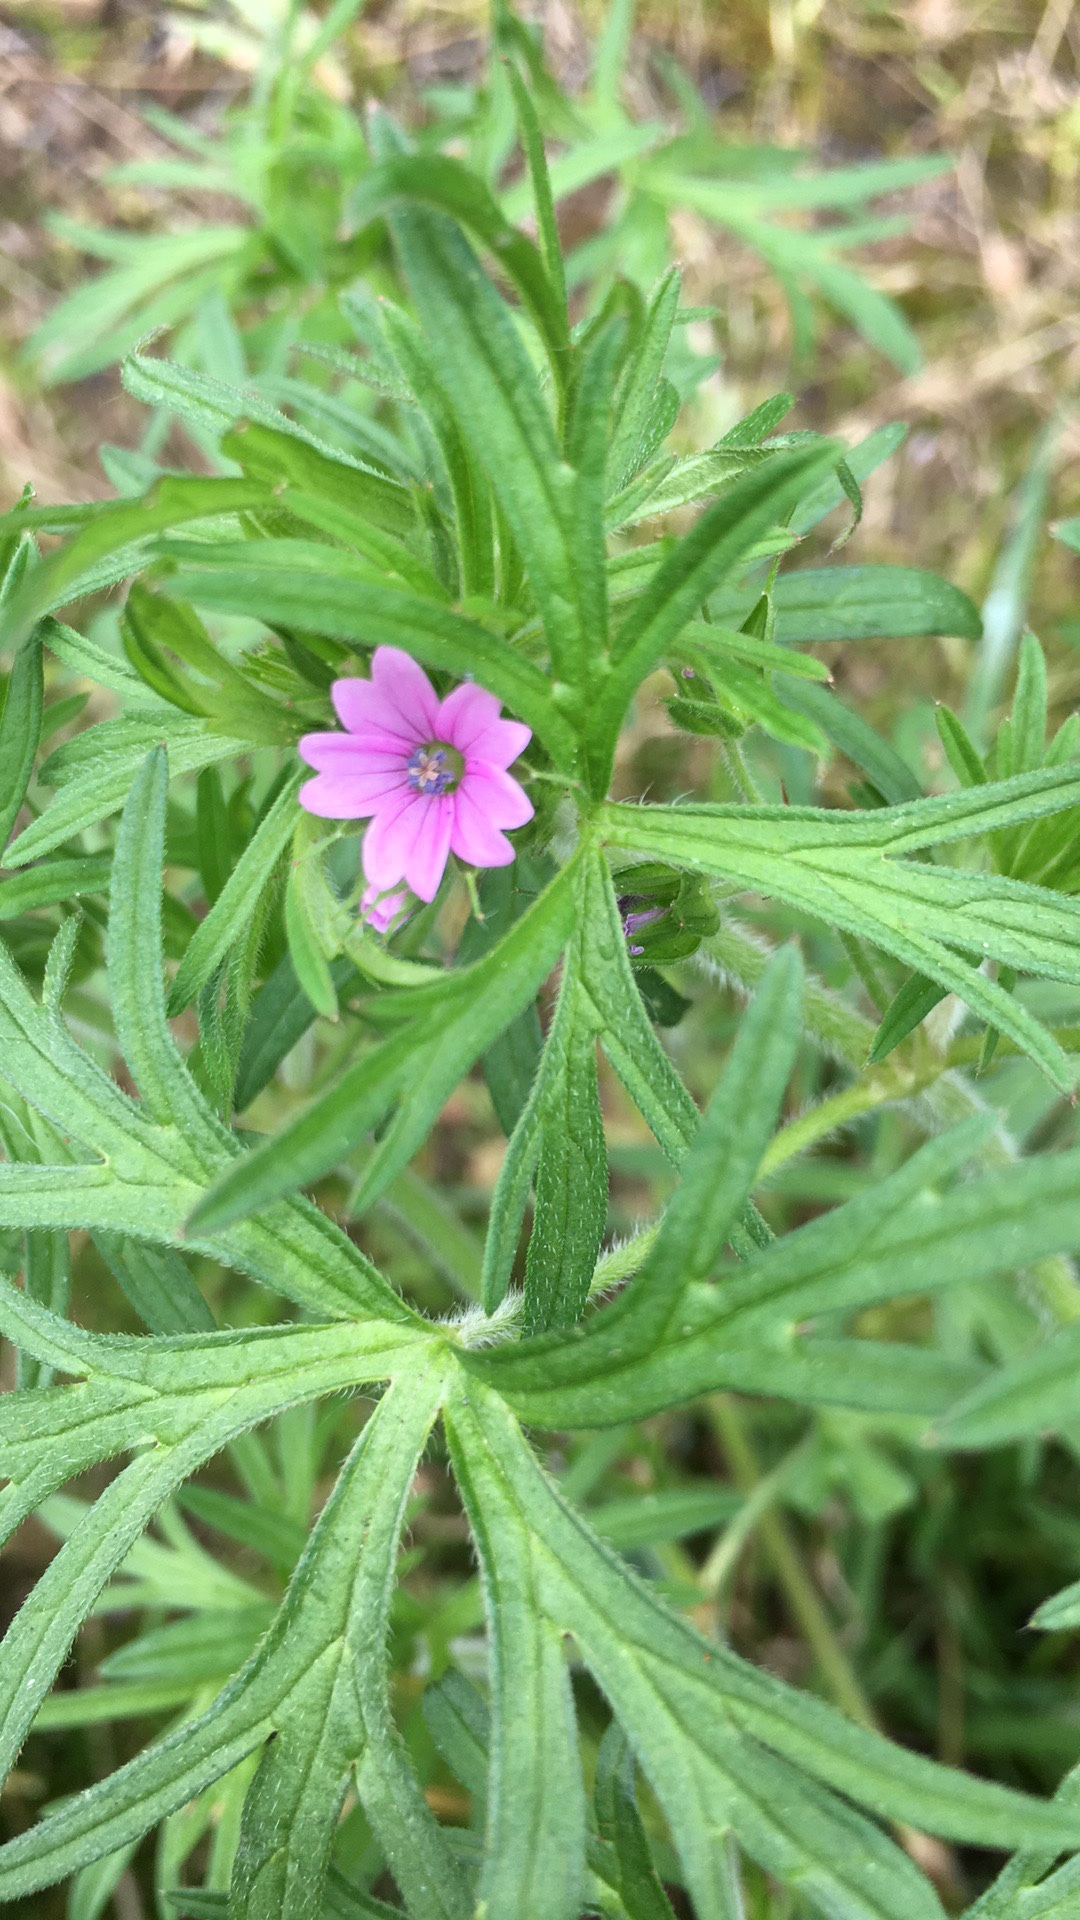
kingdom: Plantae
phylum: Tracheophyta
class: Magnoliopsida
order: Geraniales
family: Geraniaceae
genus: Geranium
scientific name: Geranium dissectum
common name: Cut-leaved crane's-bill
